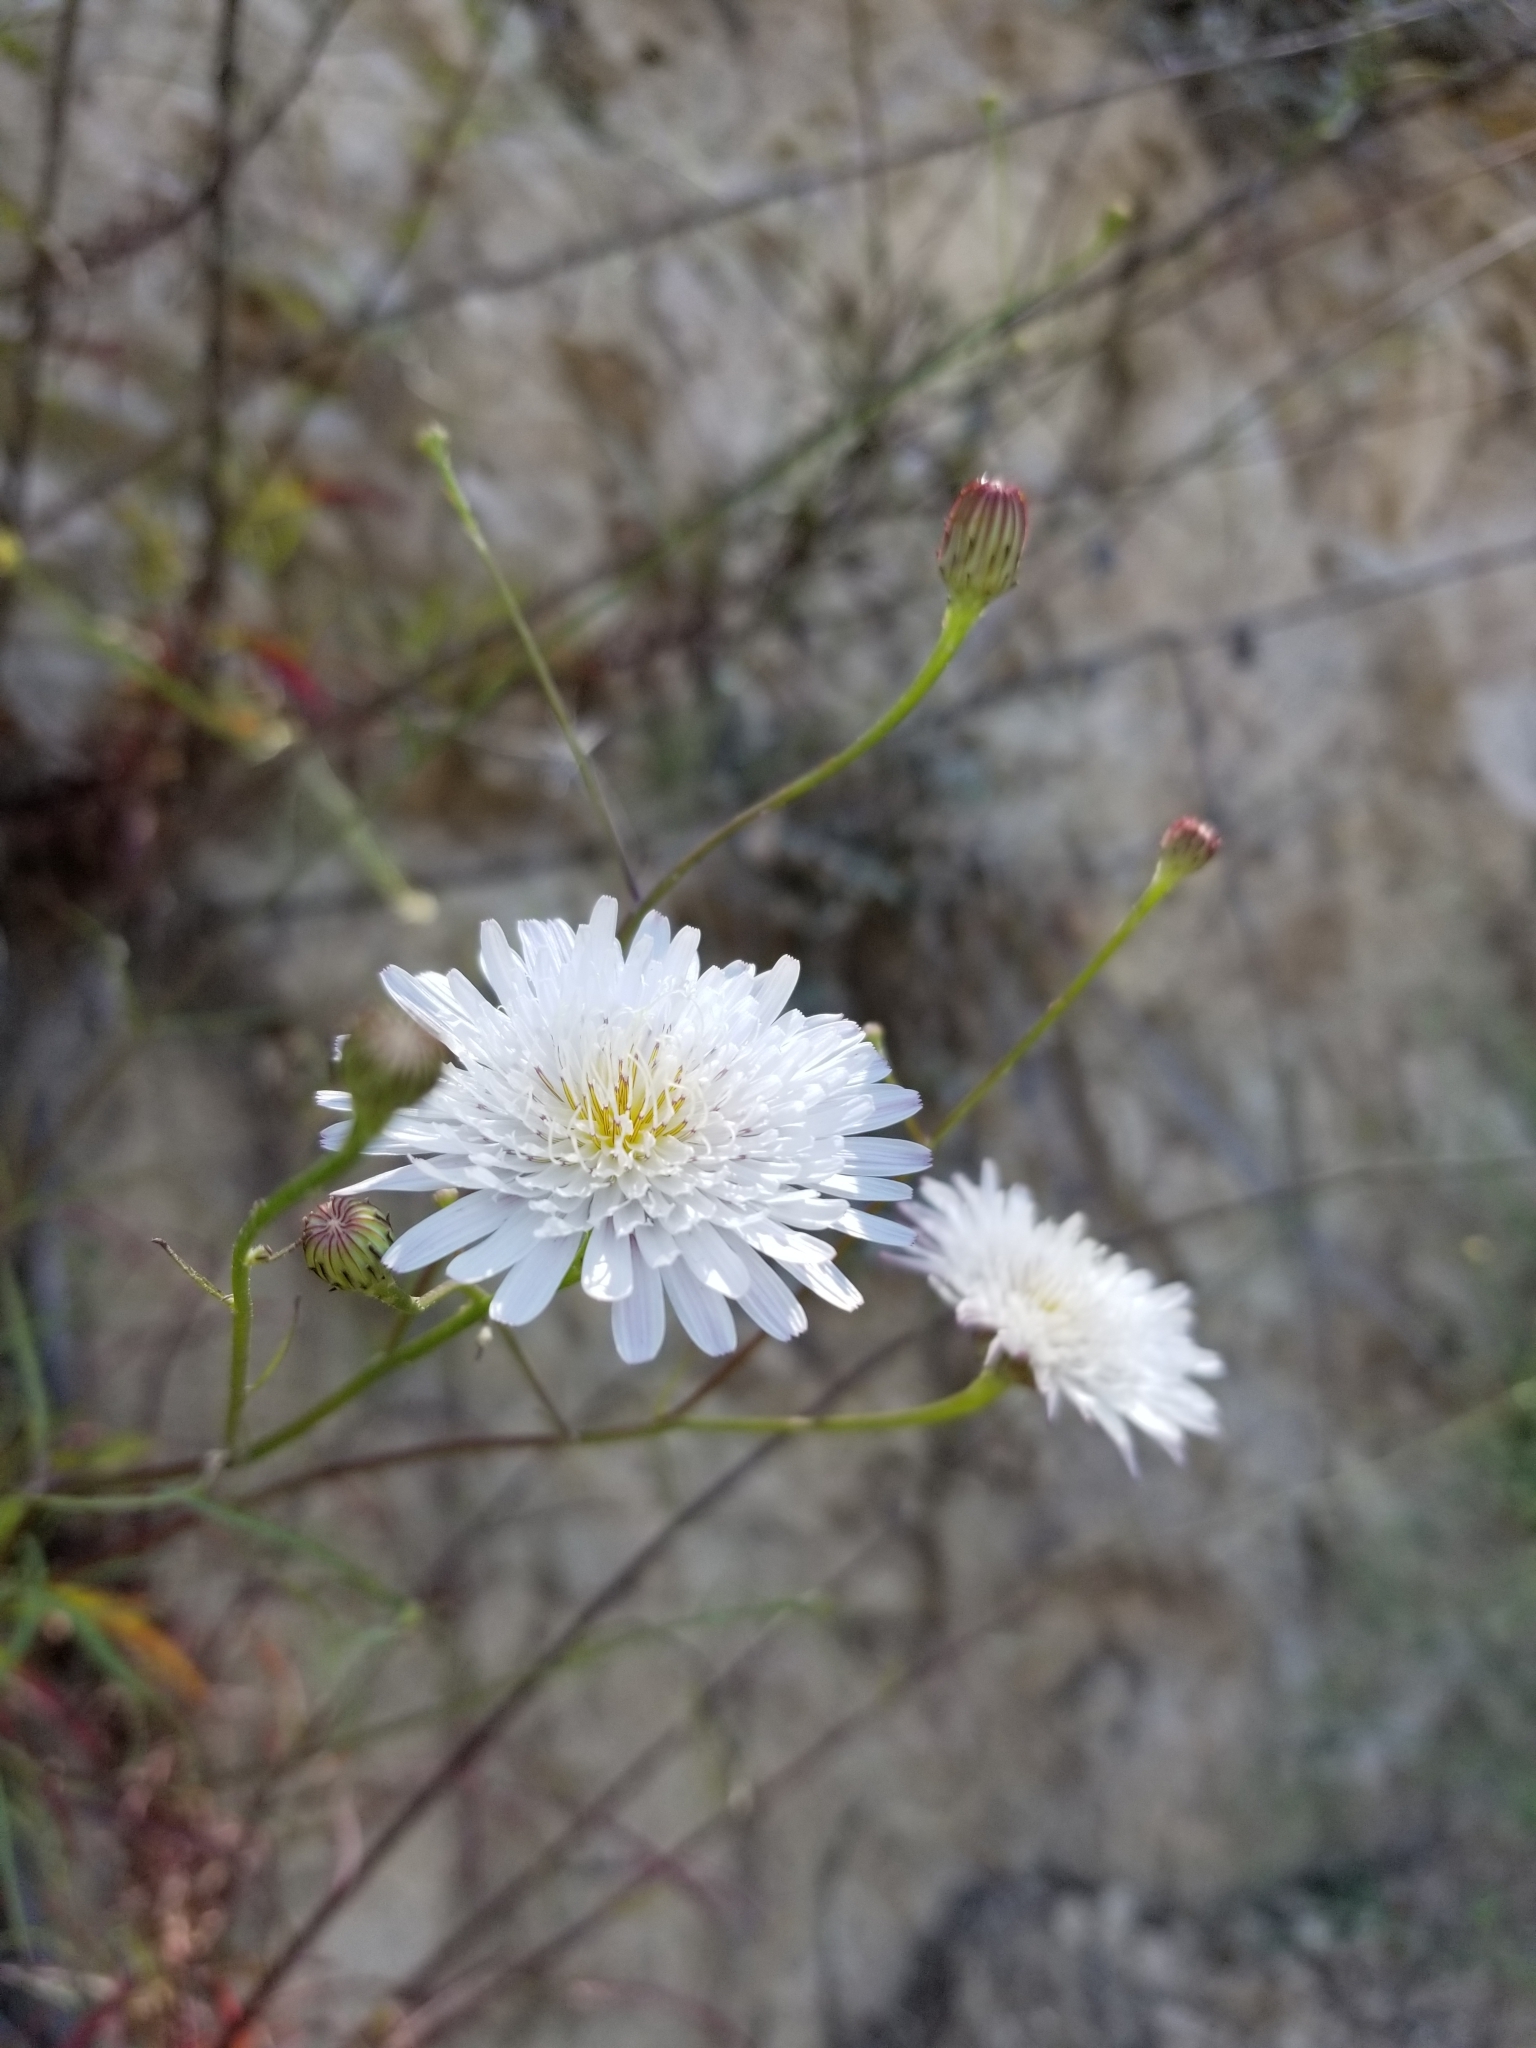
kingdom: Plantae
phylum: Tracheophyta
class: Magnoliopsida
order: Asterales
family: Asteraceae
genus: Malacothrix
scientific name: Malacothrix saxatilis
